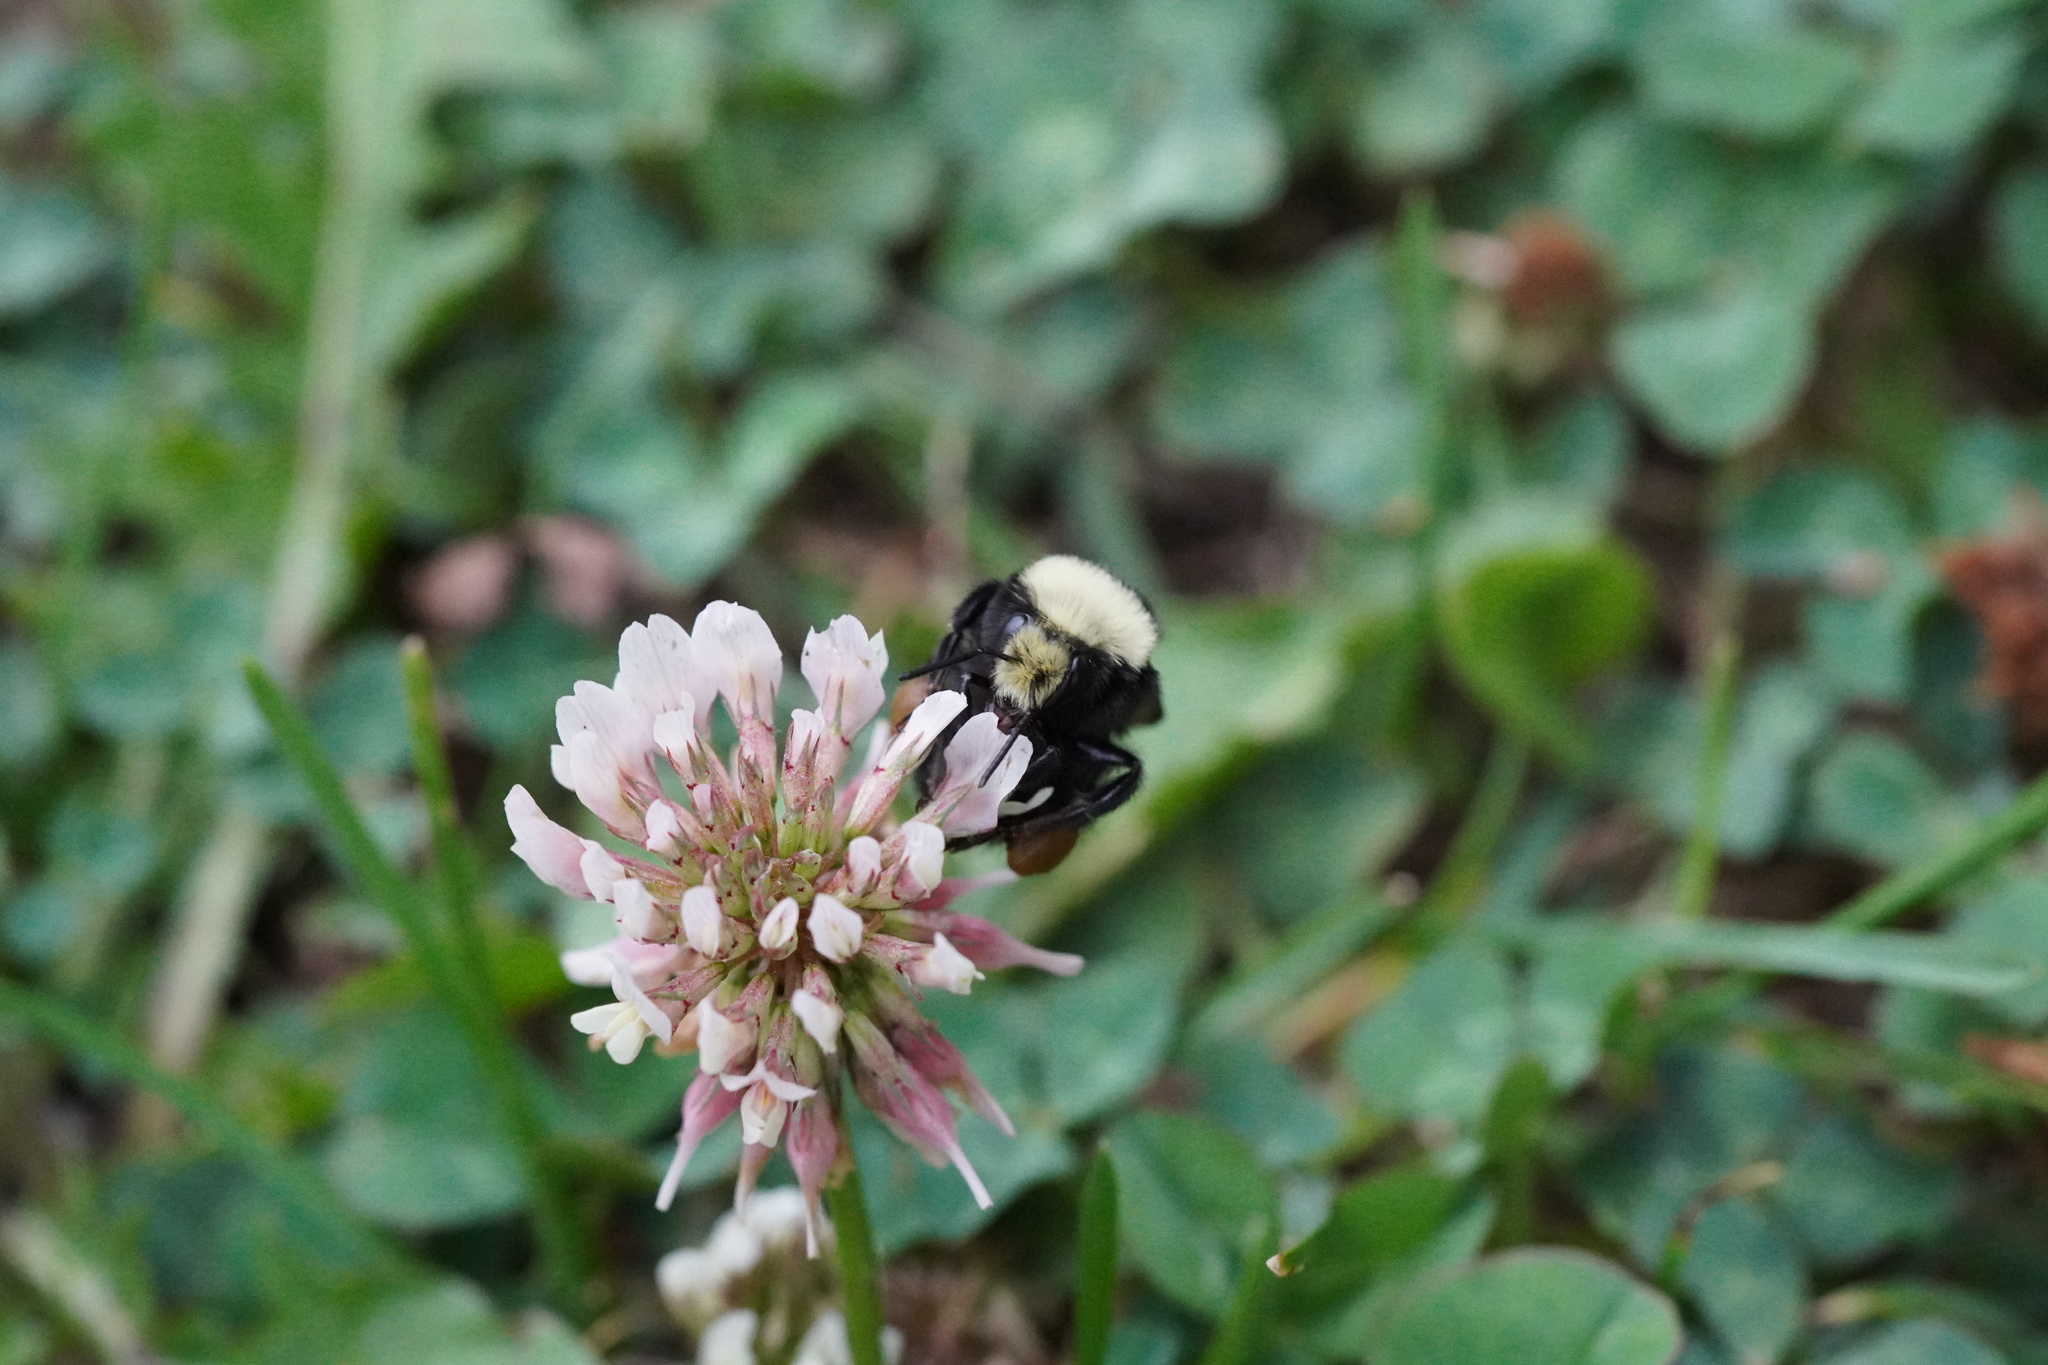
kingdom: Animalia
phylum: Arthropoda
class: Insecta
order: Hymenoptera
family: Apidae
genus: Bombus
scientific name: Bombus vosnesenskii
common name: Vosnesensky bumble bee
